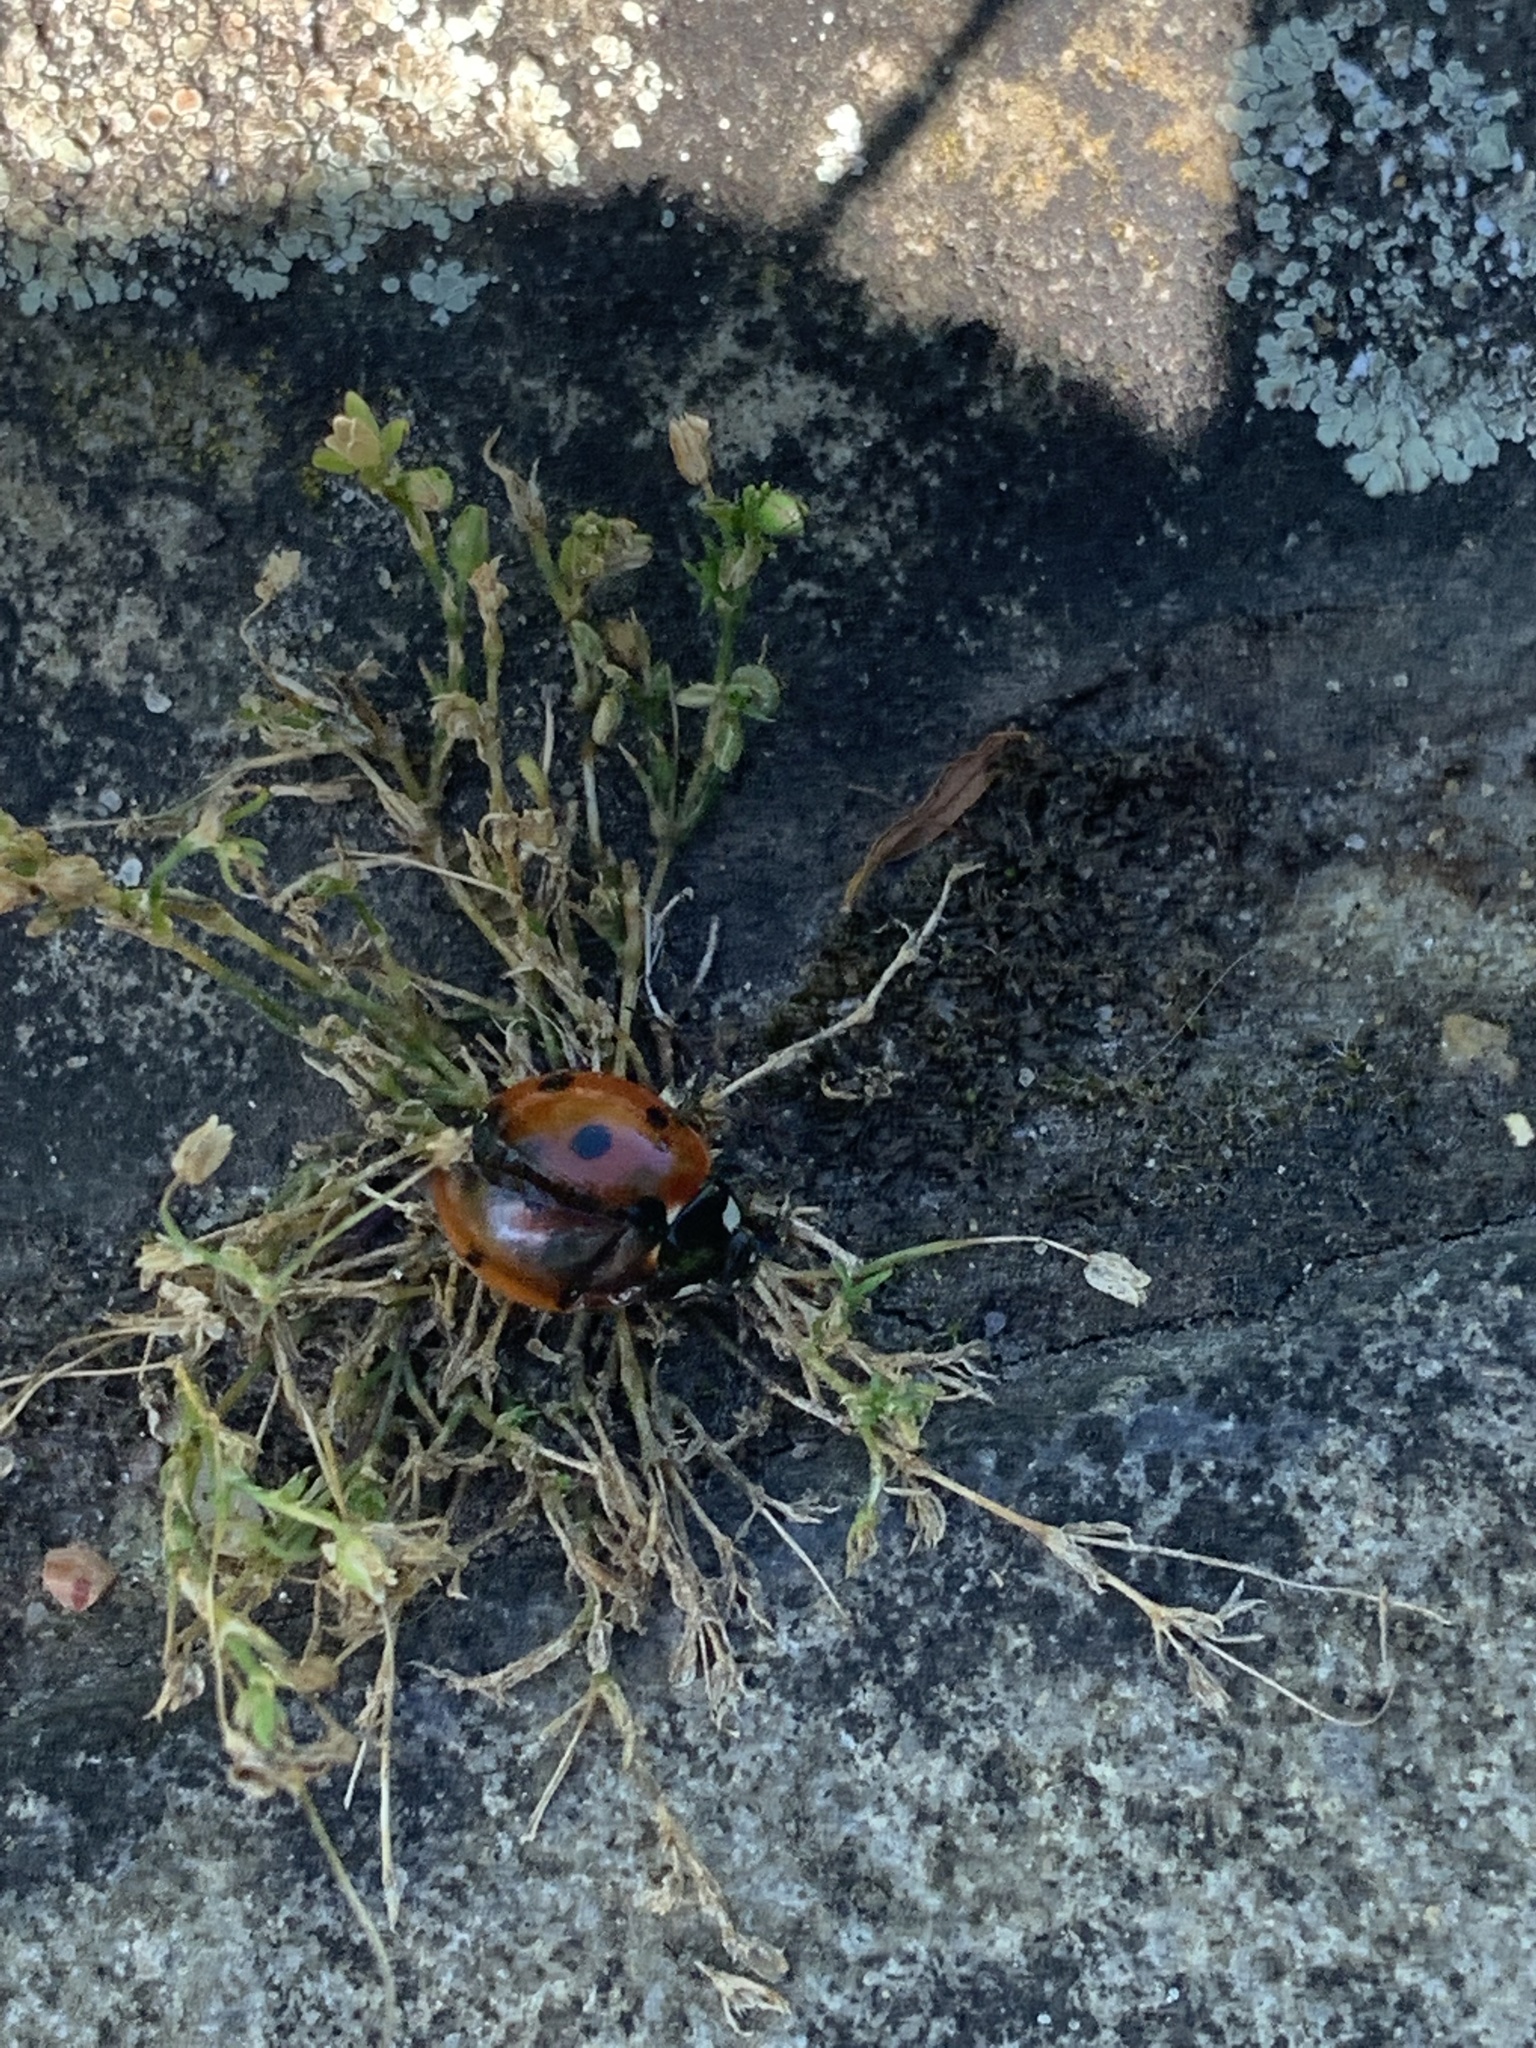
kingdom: Animalia
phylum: Arthropoda
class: Insecta
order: Coleoptera
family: Coccinellidae
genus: Coccinella
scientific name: Coccinella septempunctata
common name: Sevenspotted lady beetle
